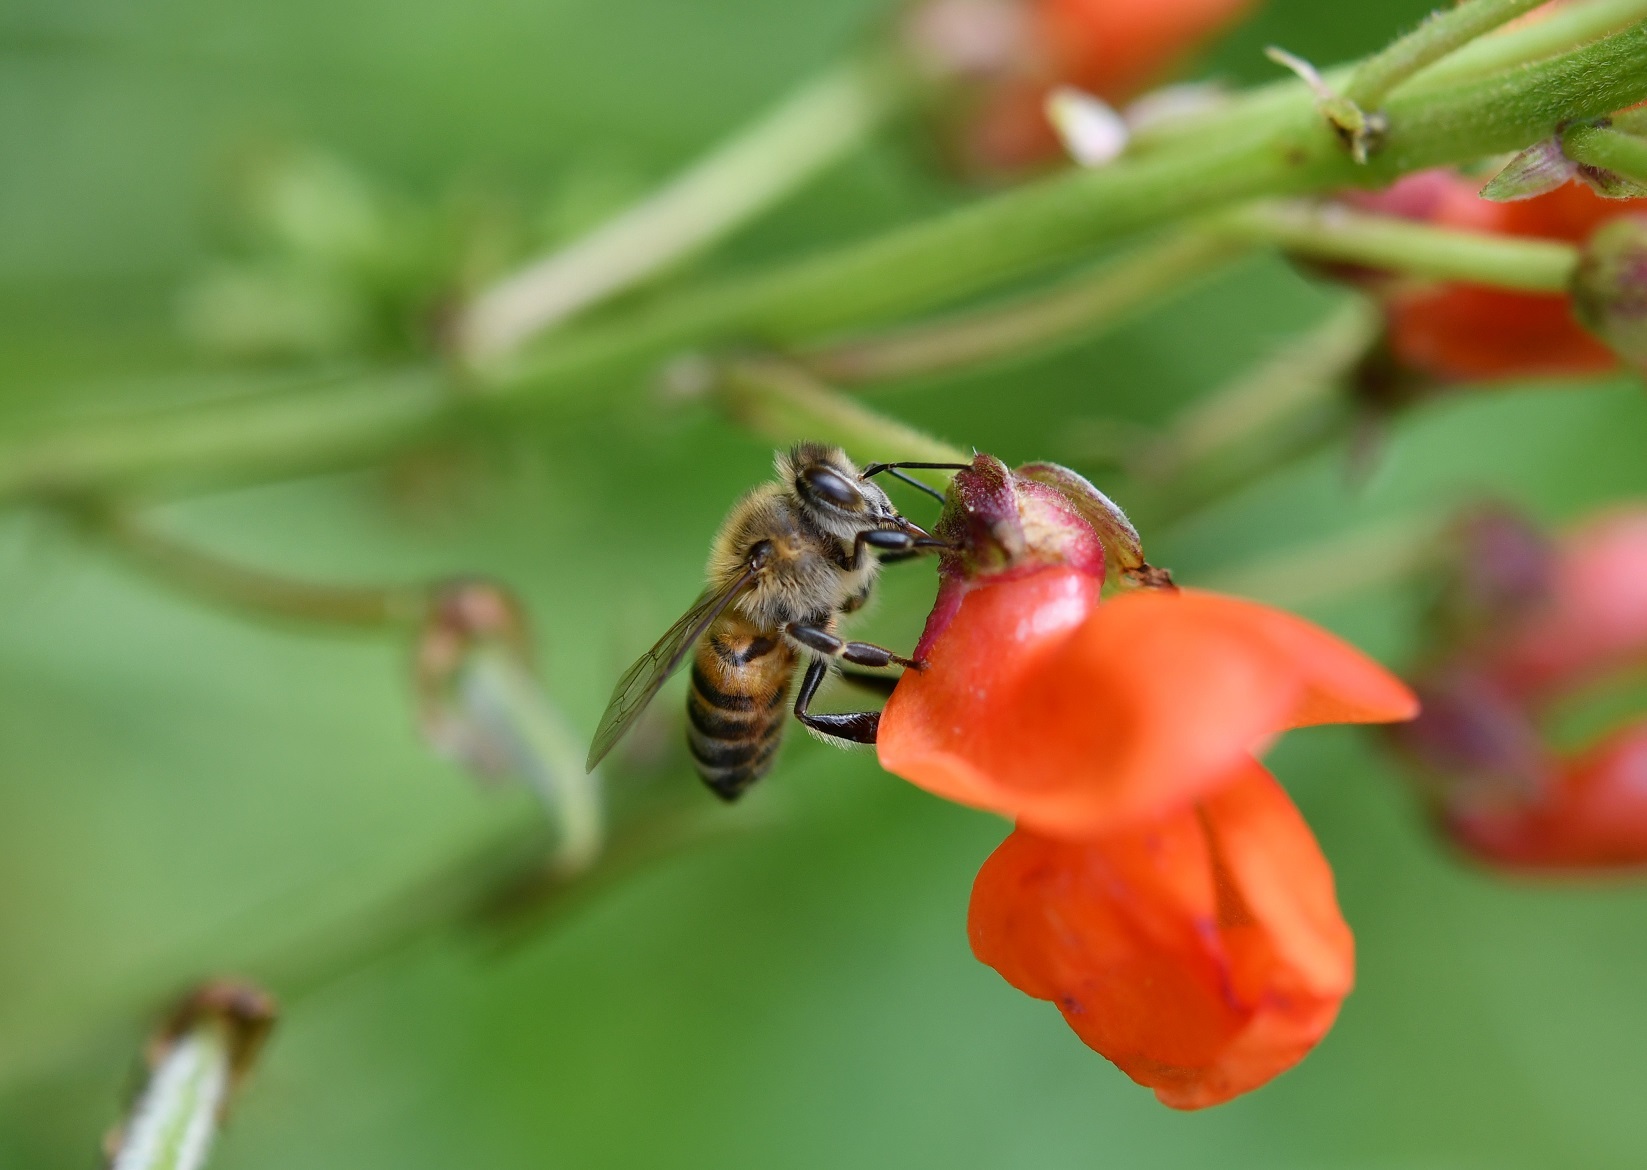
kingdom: Animalia
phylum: Arthropoda
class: Insecta
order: Hymenoptera
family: Apidae
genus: Apis
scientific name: Apis mellifera
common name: Honey bee
